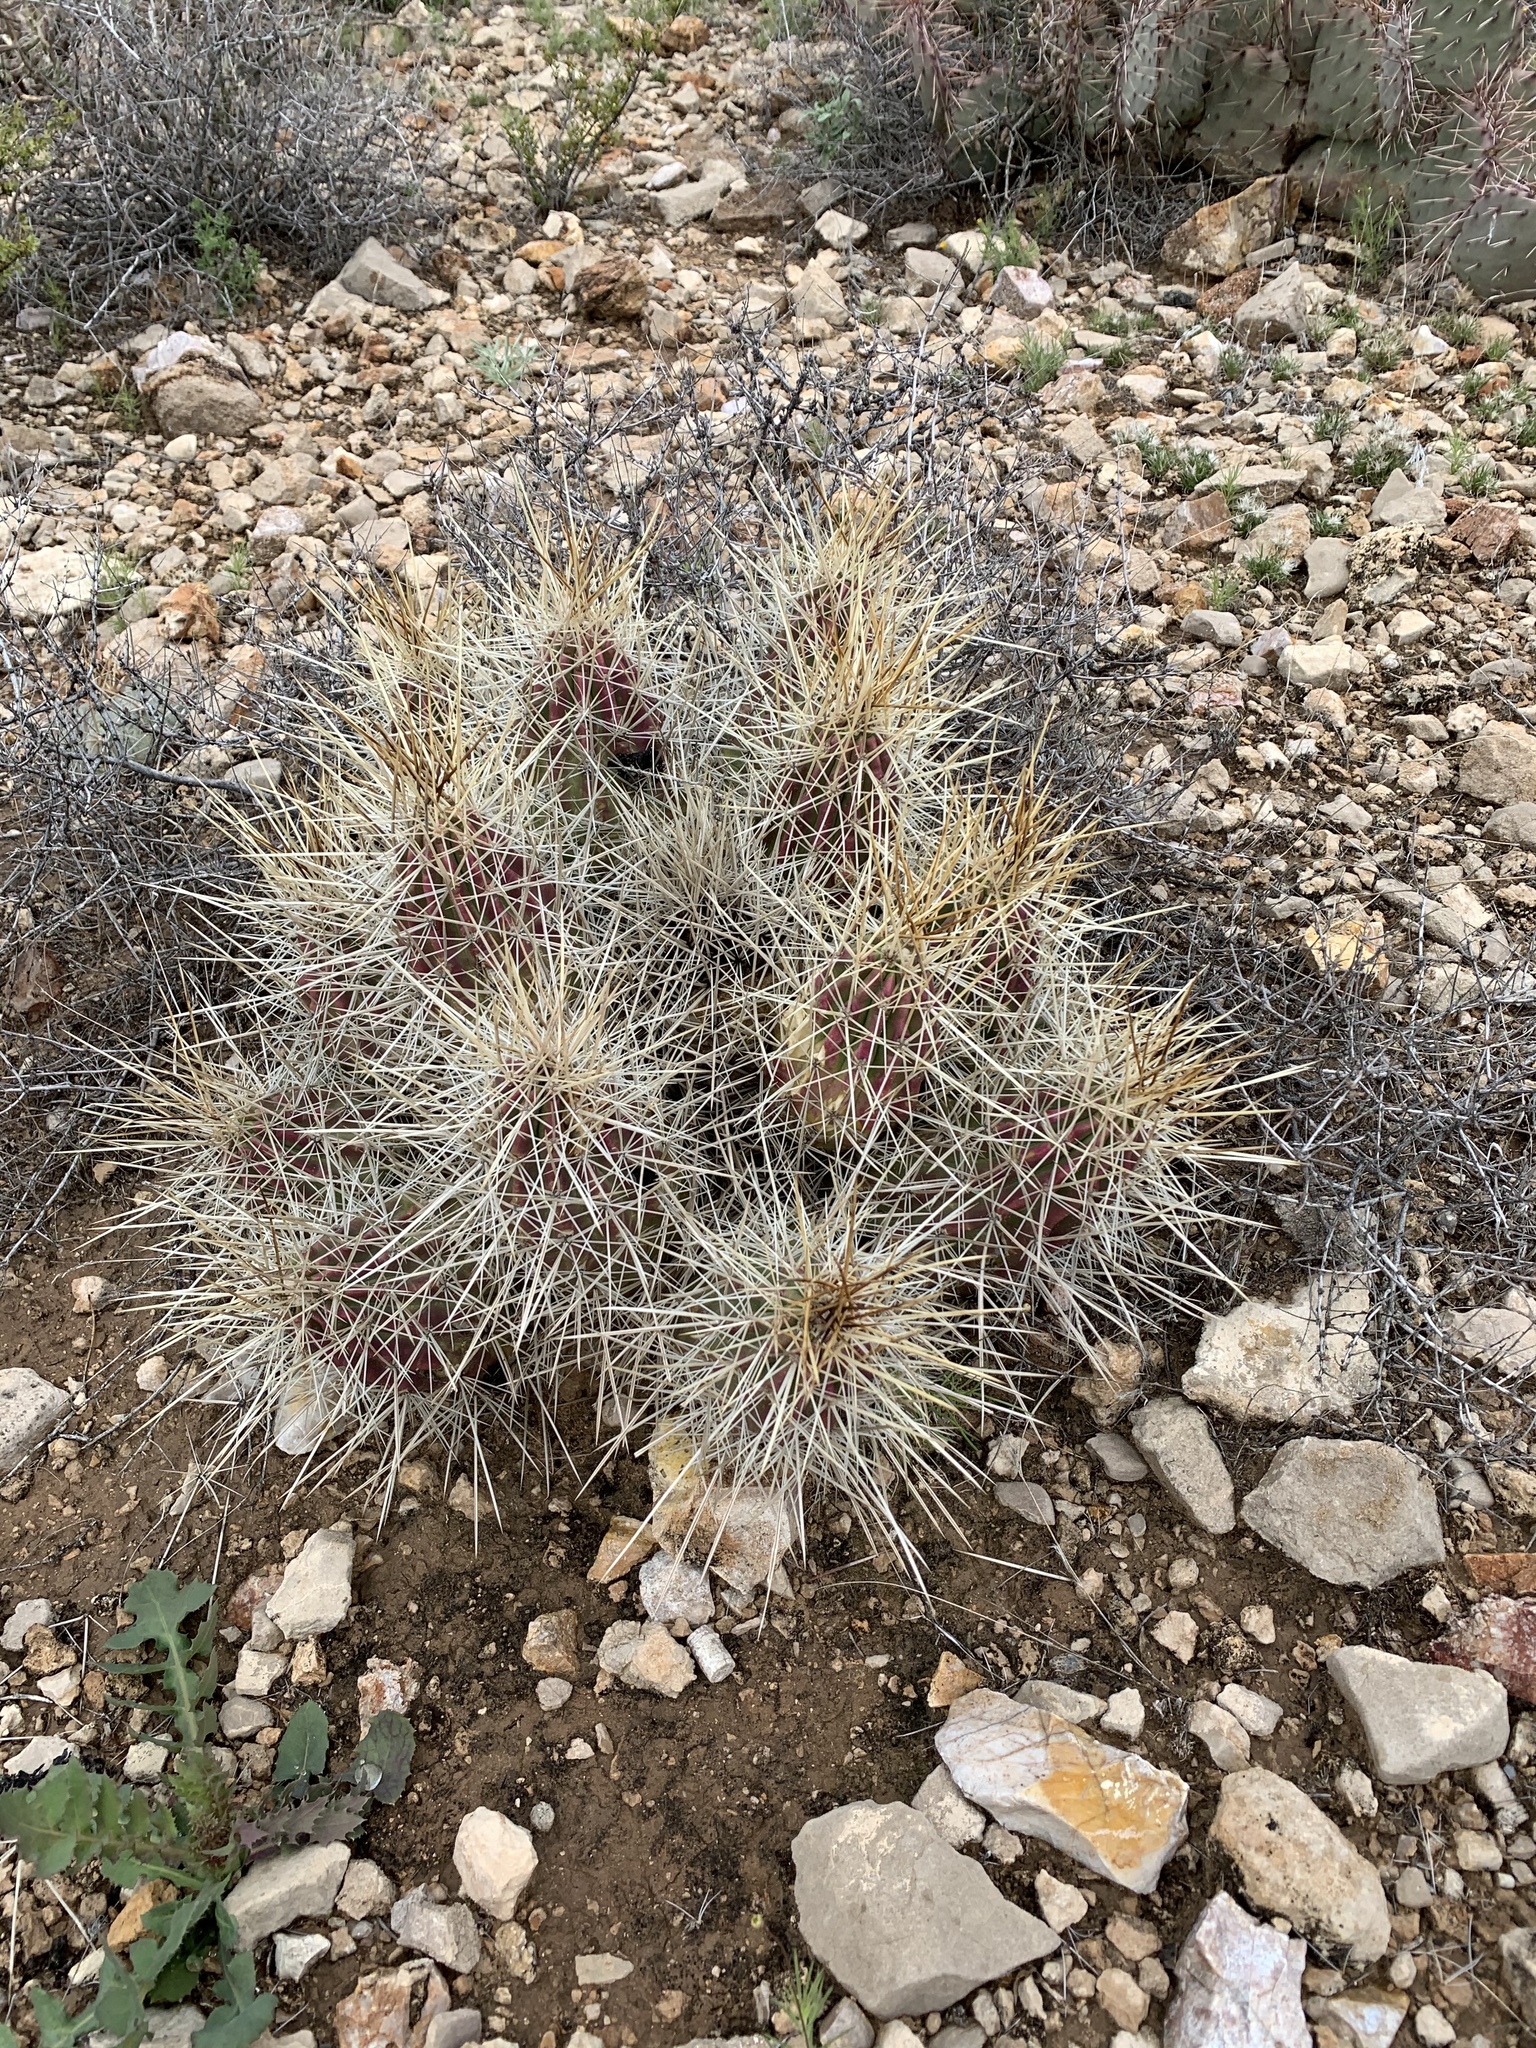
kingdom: Plantae
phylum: Tracheophyta
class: Magnoliopsida
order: Caryophyllales
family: Cactaceae
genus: Echinocereus
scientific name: Echinocereus stramineus
